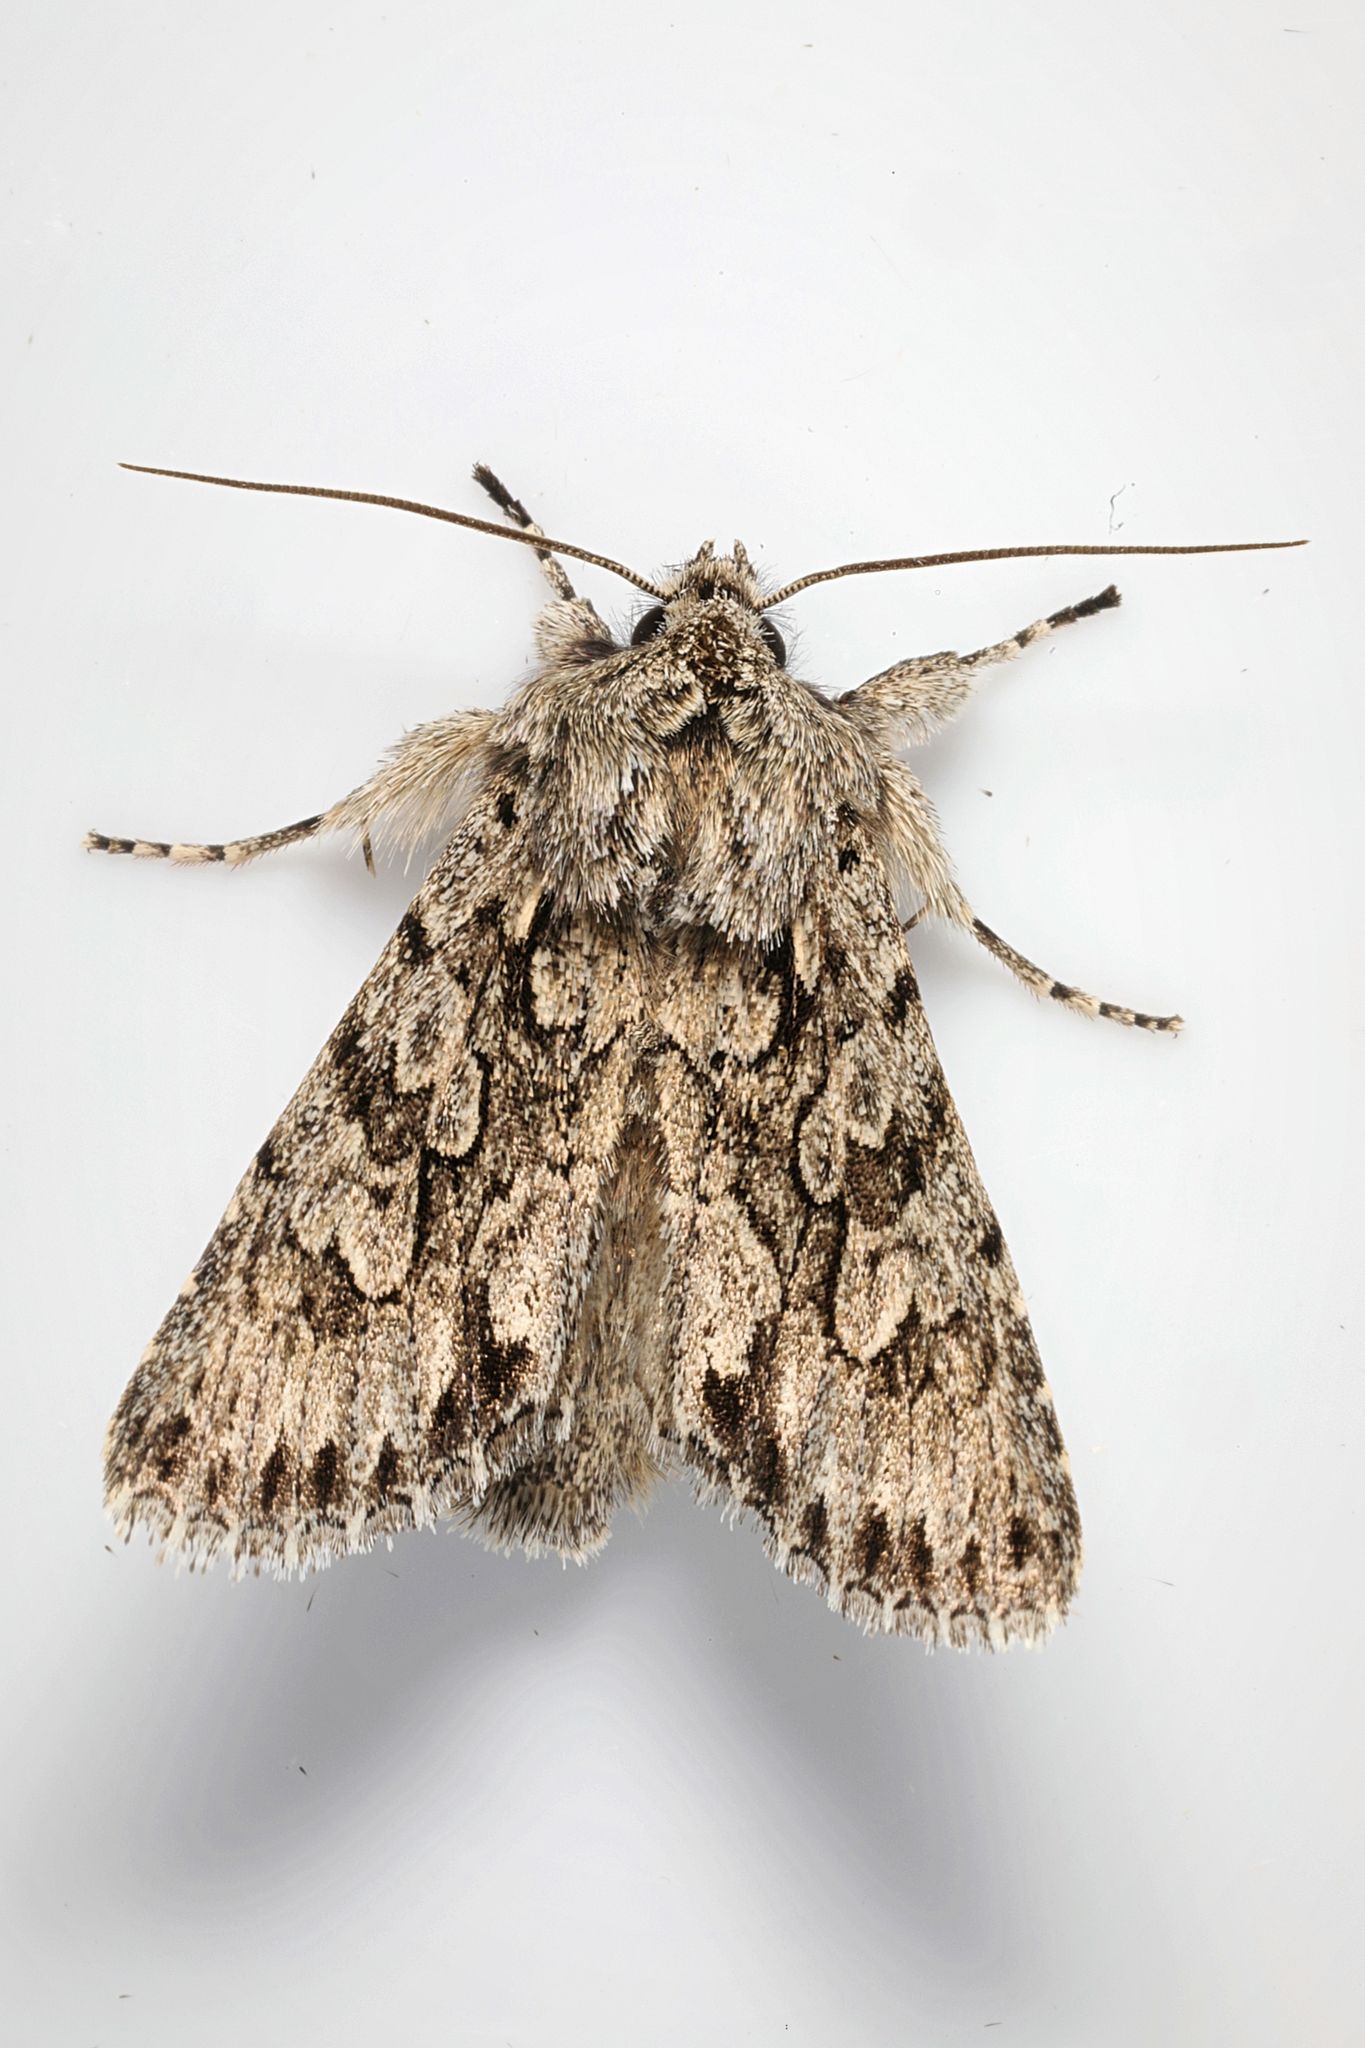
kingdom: Animalia
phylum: Arthropoda
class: Insecta
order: Lepidoptera
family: Noctuidae
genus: Xylocampa
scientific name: Xylocampa areola
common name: Early grey
